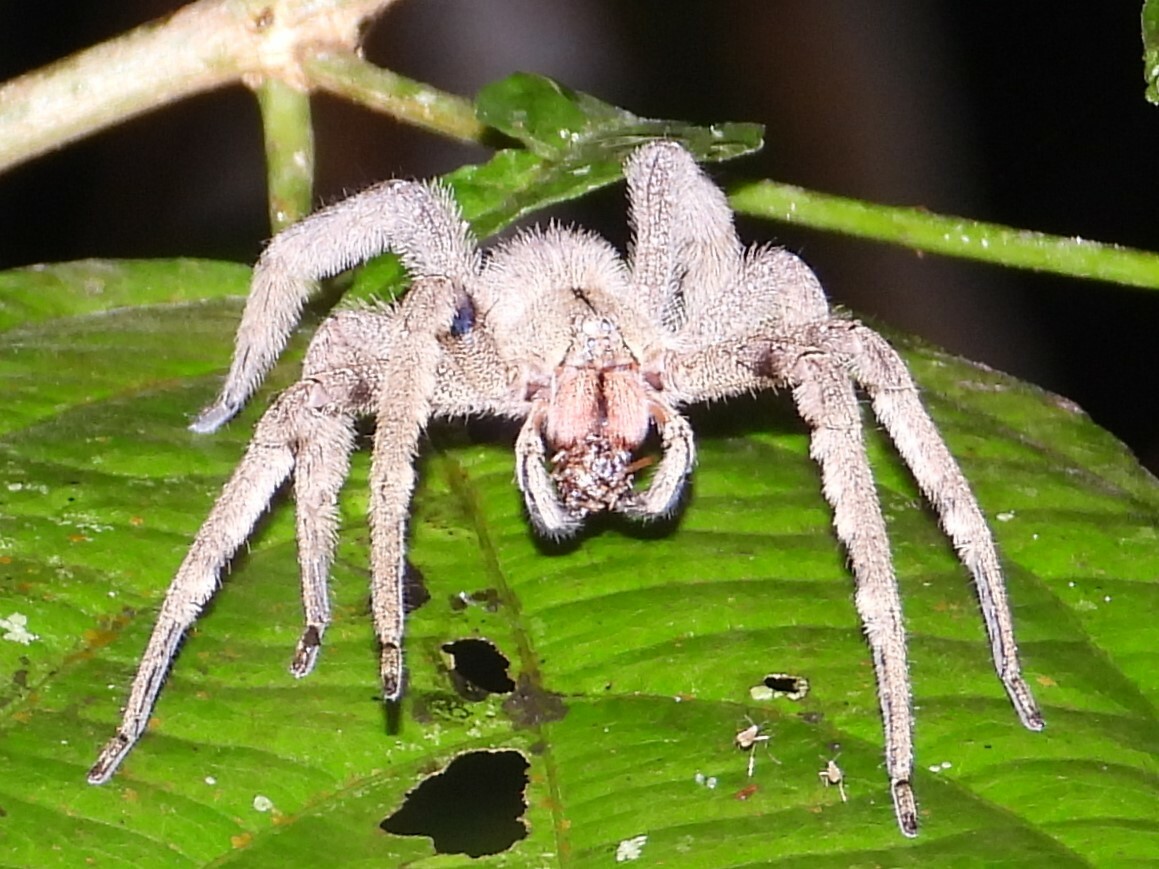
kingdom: Animalia
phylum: Arthropoda
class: Arachnida
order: Araneae
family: Ctenidae
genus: Phoneutria
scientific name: Phoneutria depilata
